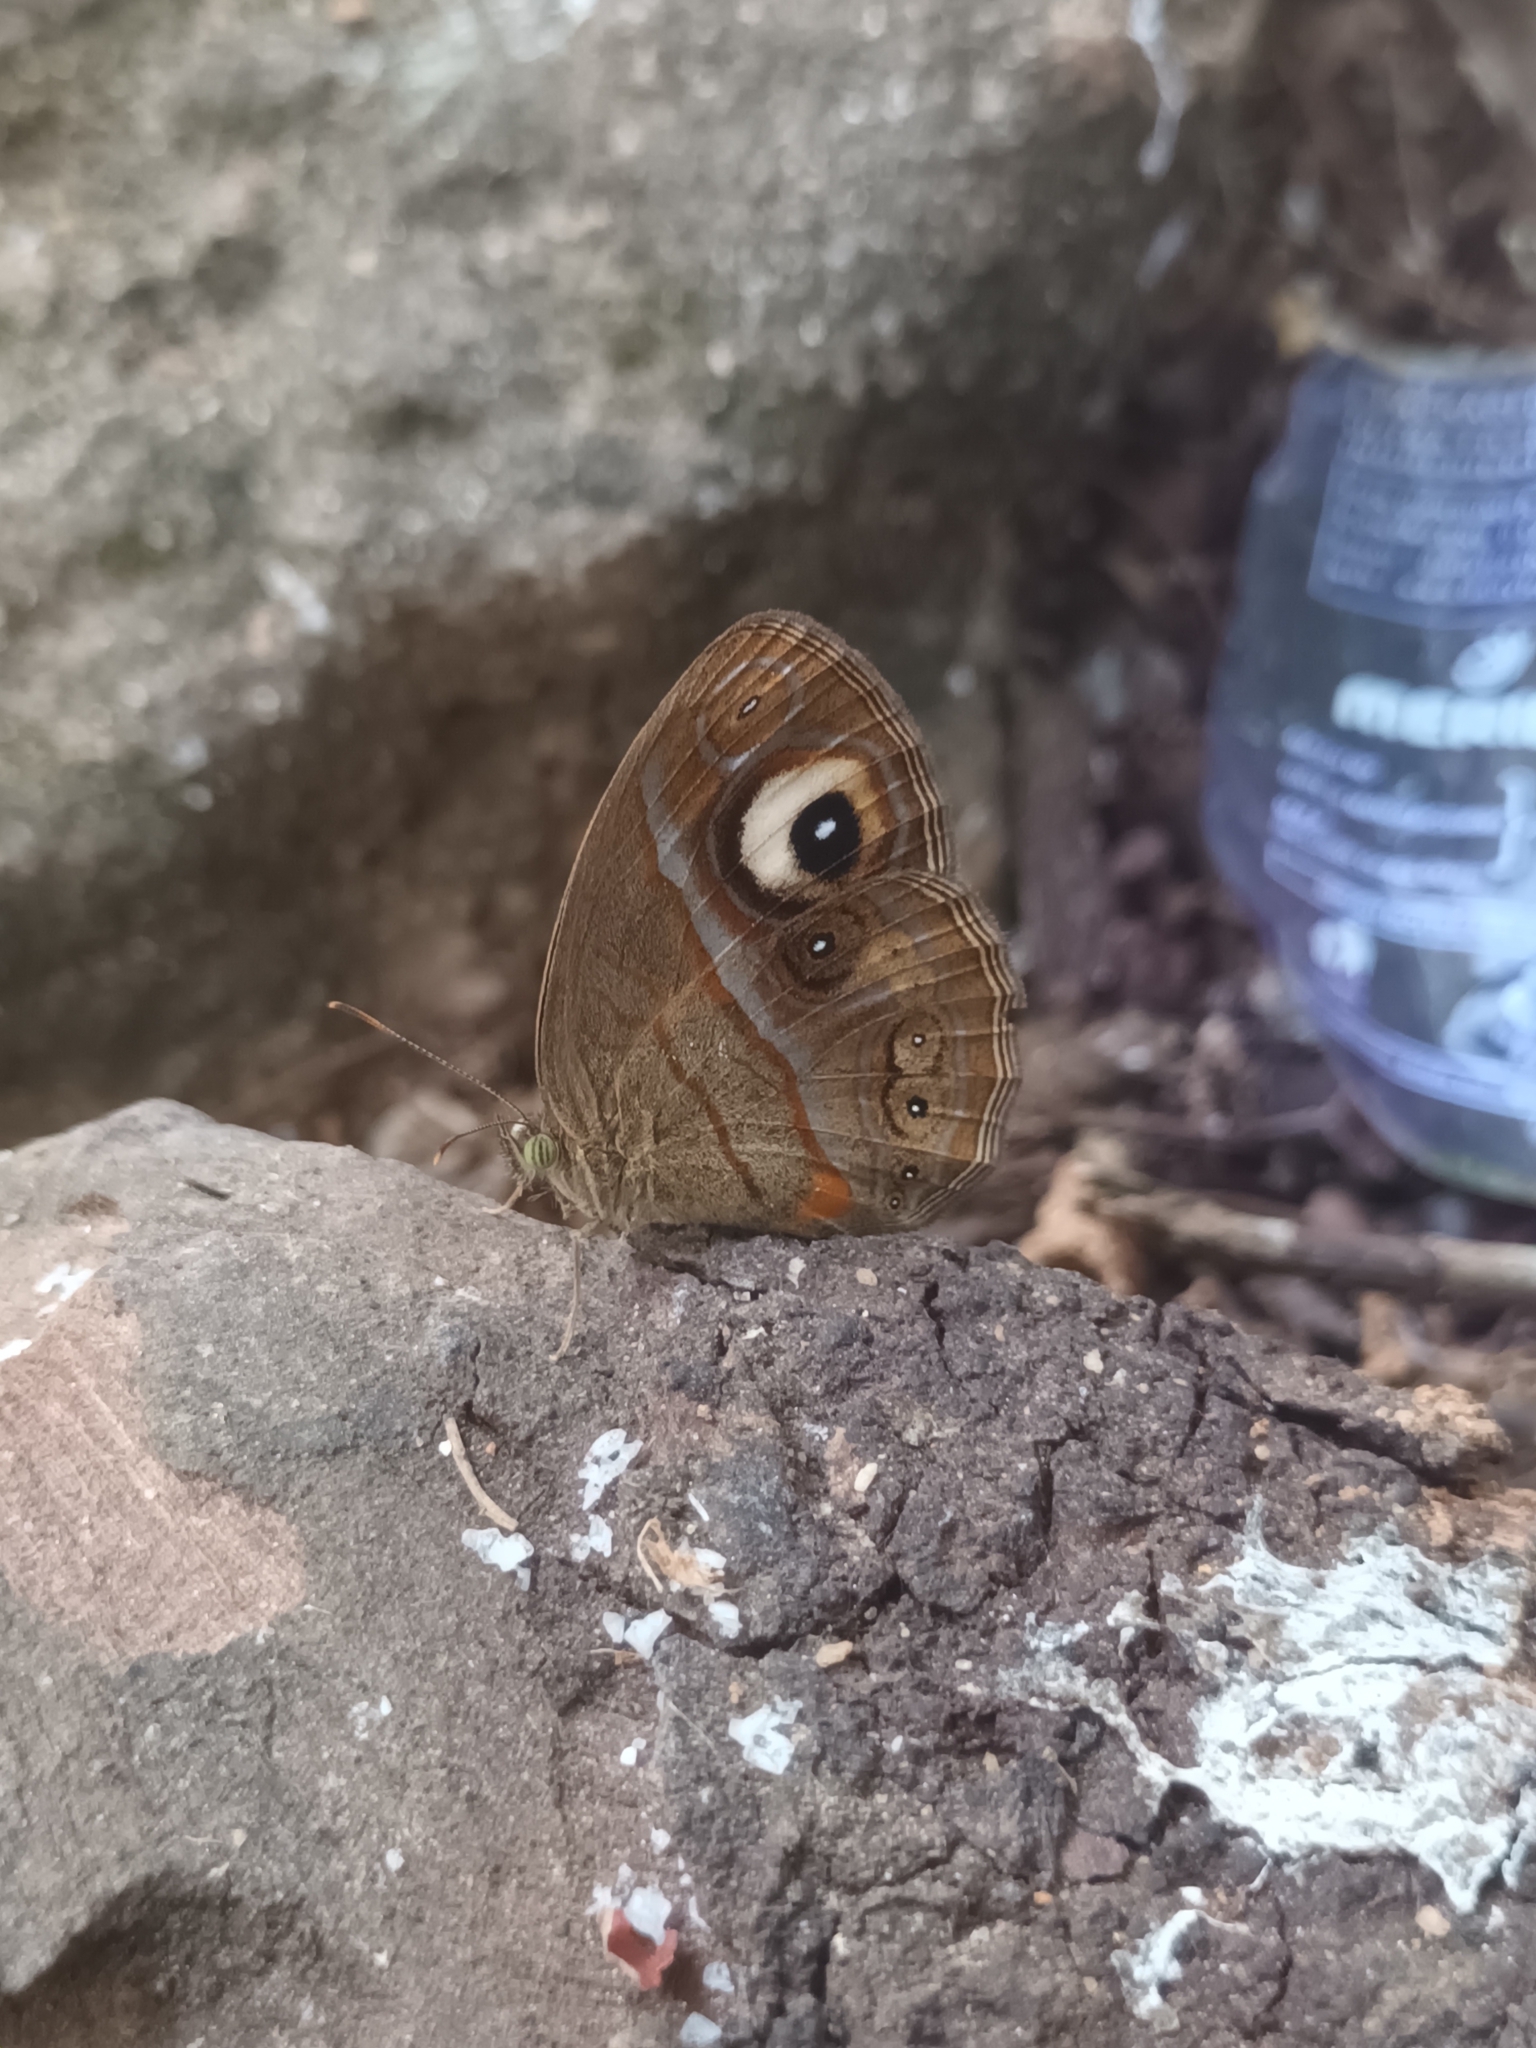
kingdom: Animalia
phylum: Arthropoda
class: Insecta
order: Lepidoptera
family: Nymphalidae
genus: Mycalesis
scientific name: Mycalesis patnia
